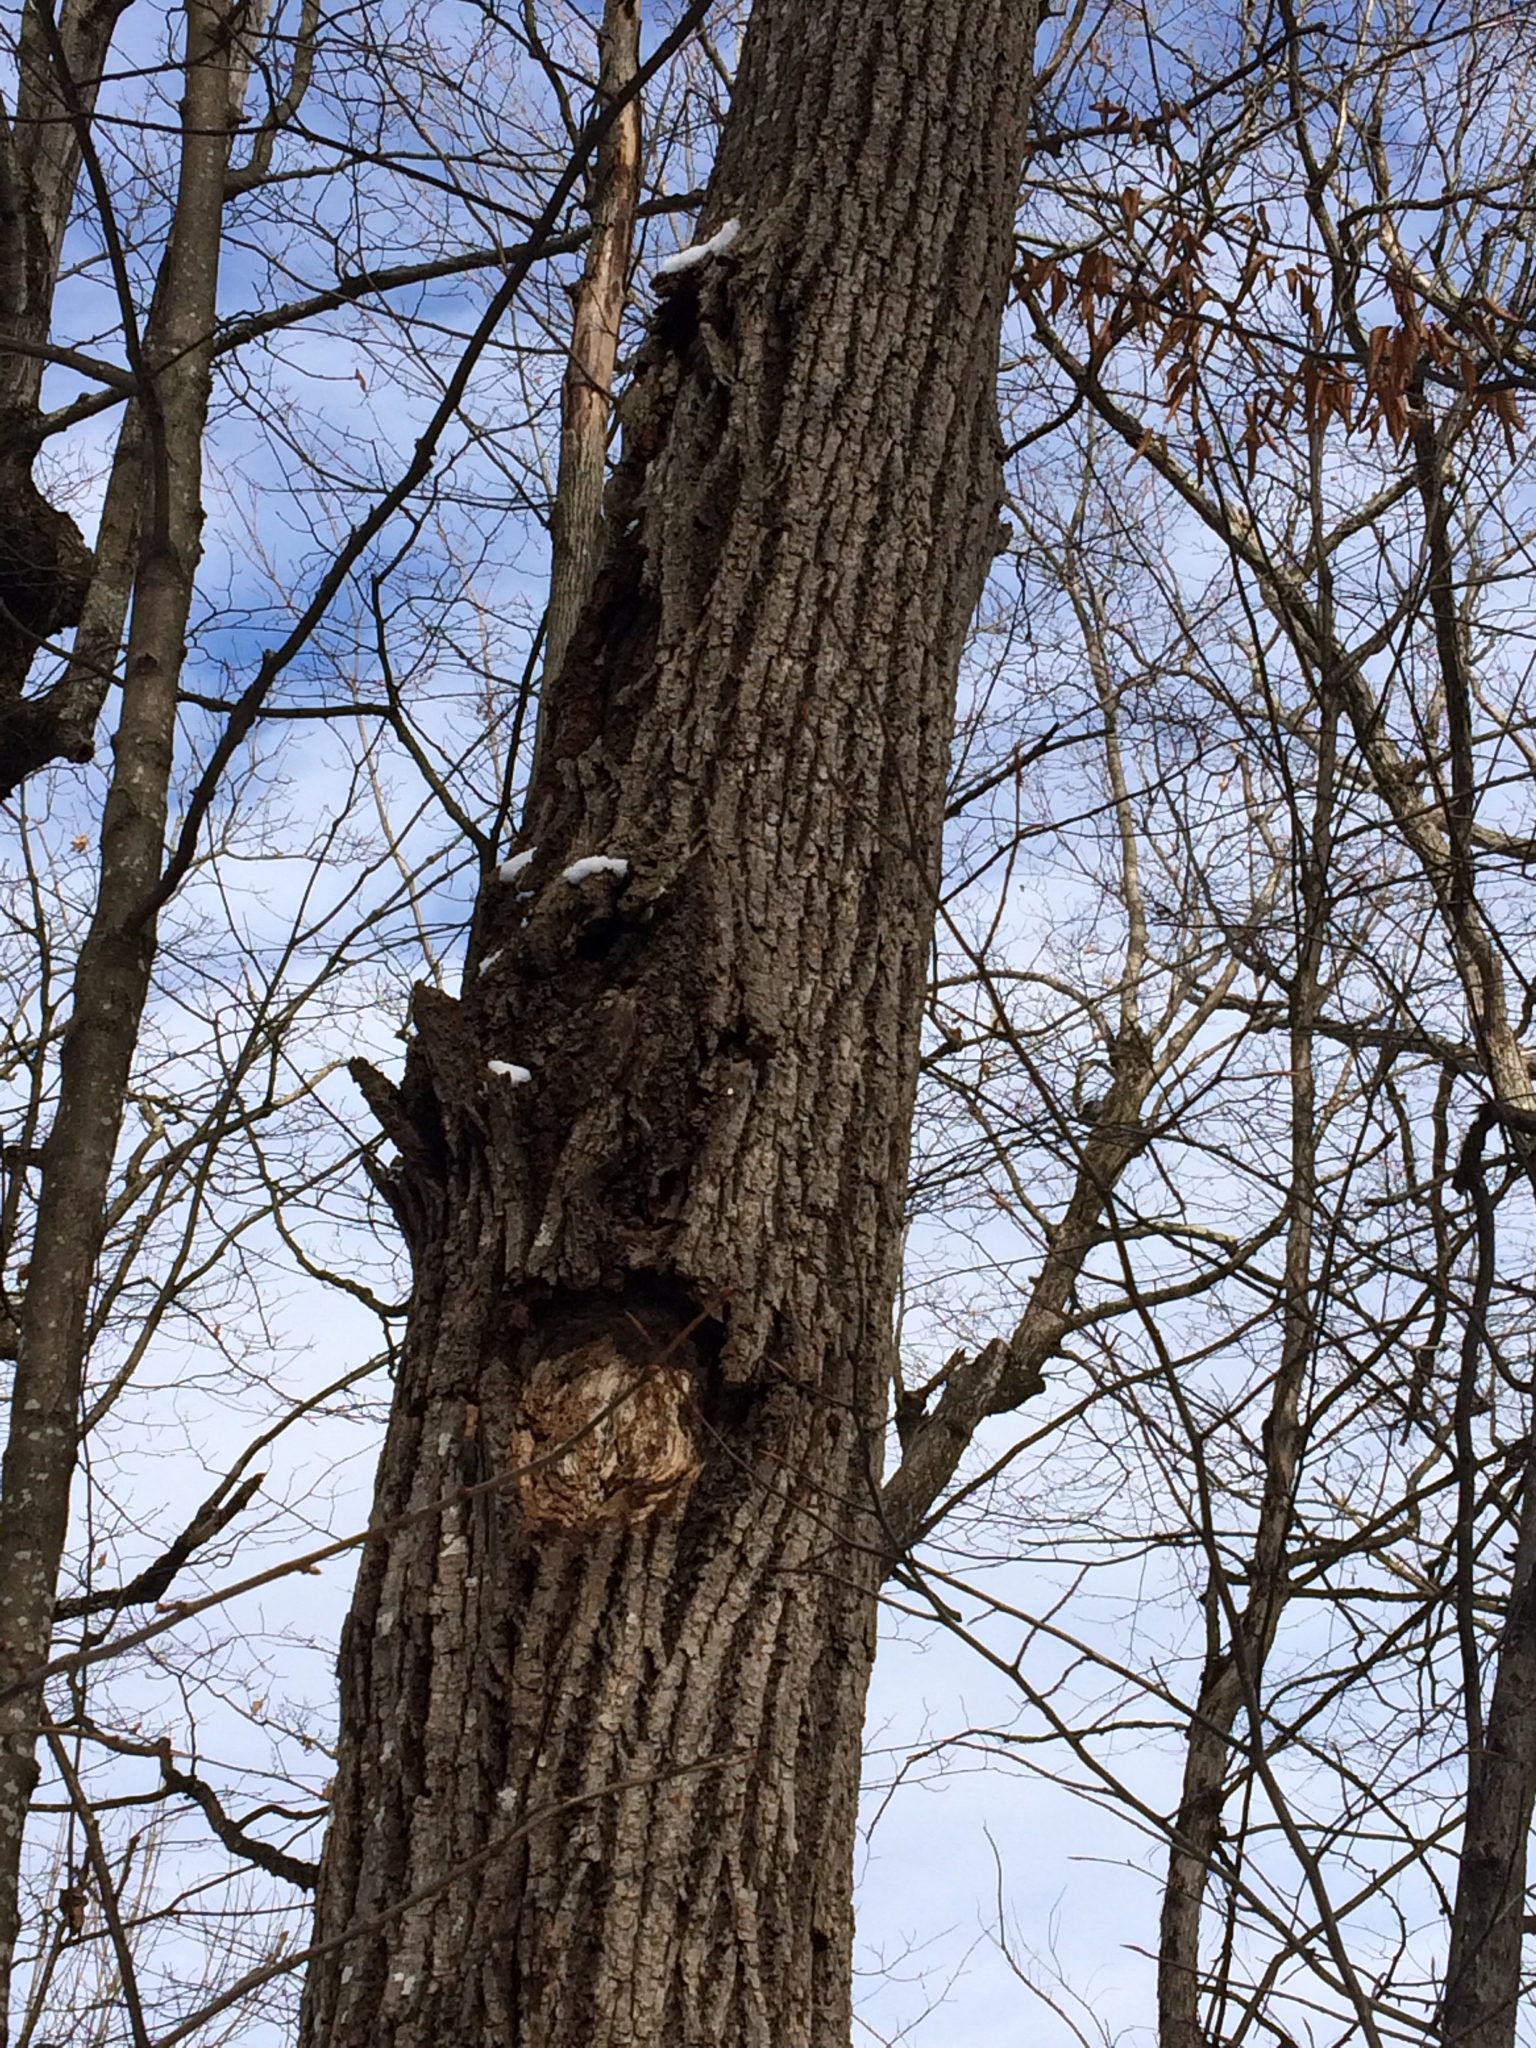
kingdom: Plantae
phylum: Tracheophyta
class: Magnoliopsida
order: Fagales
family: Juglandaceae
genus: Juglans
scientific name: Juglans cinerea
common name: Butternut
